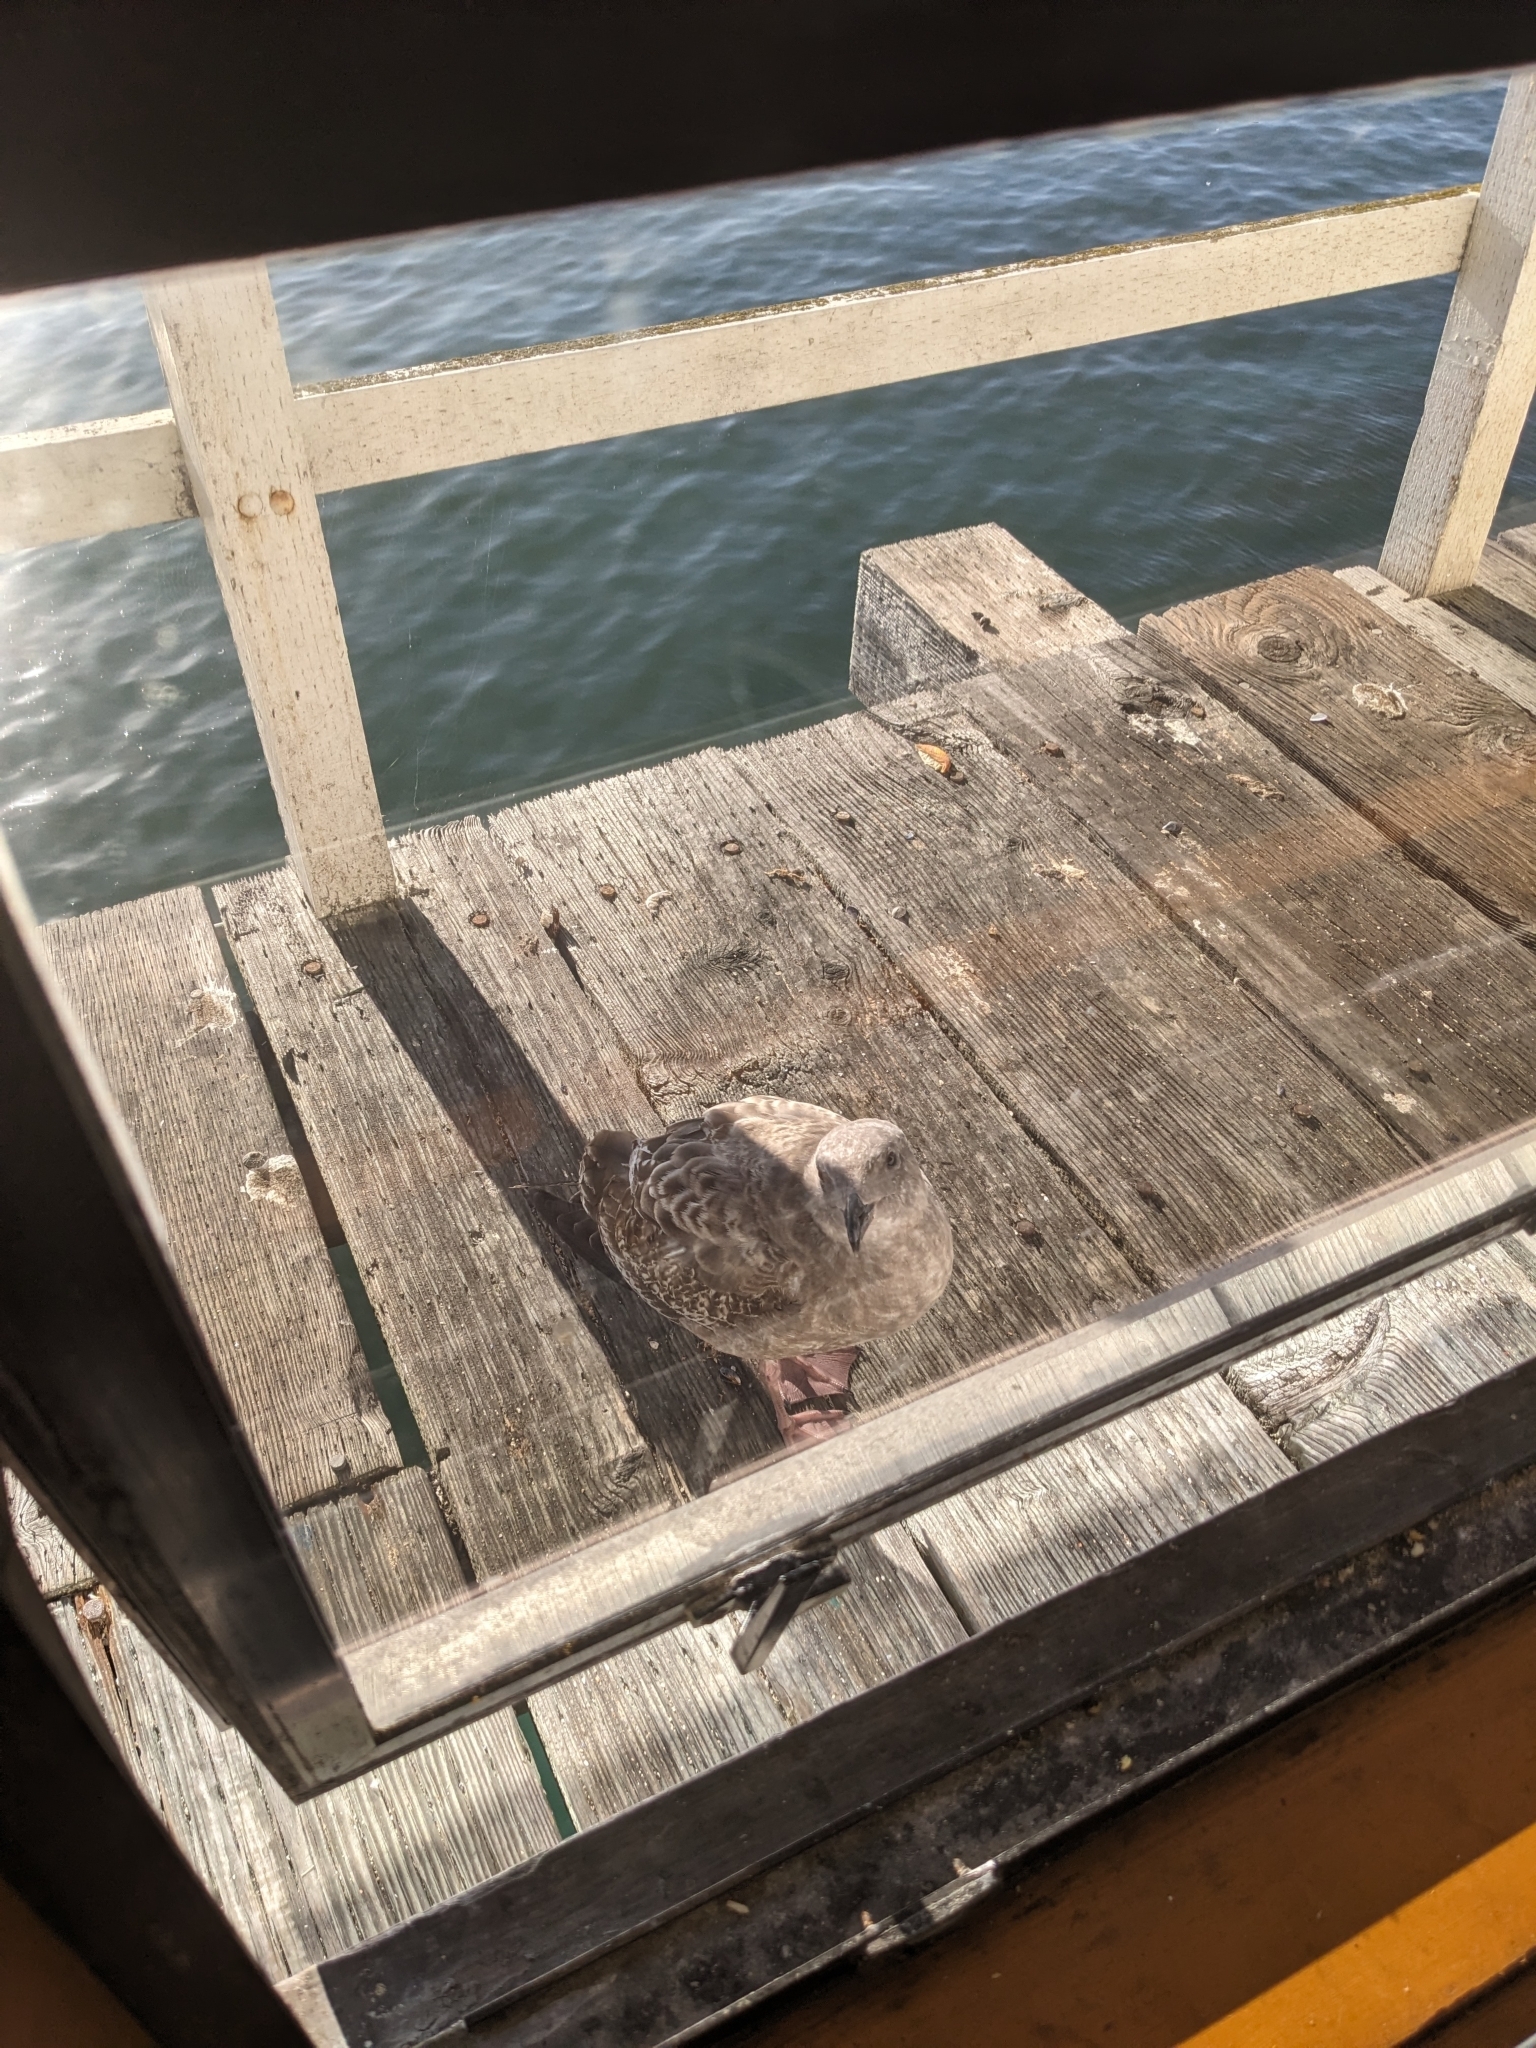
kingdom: Animalia
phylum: Chordata
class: Aves
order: Charadriiformes
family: Laridae
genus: Larus
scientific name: Larus occidentalis
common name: Western gull
